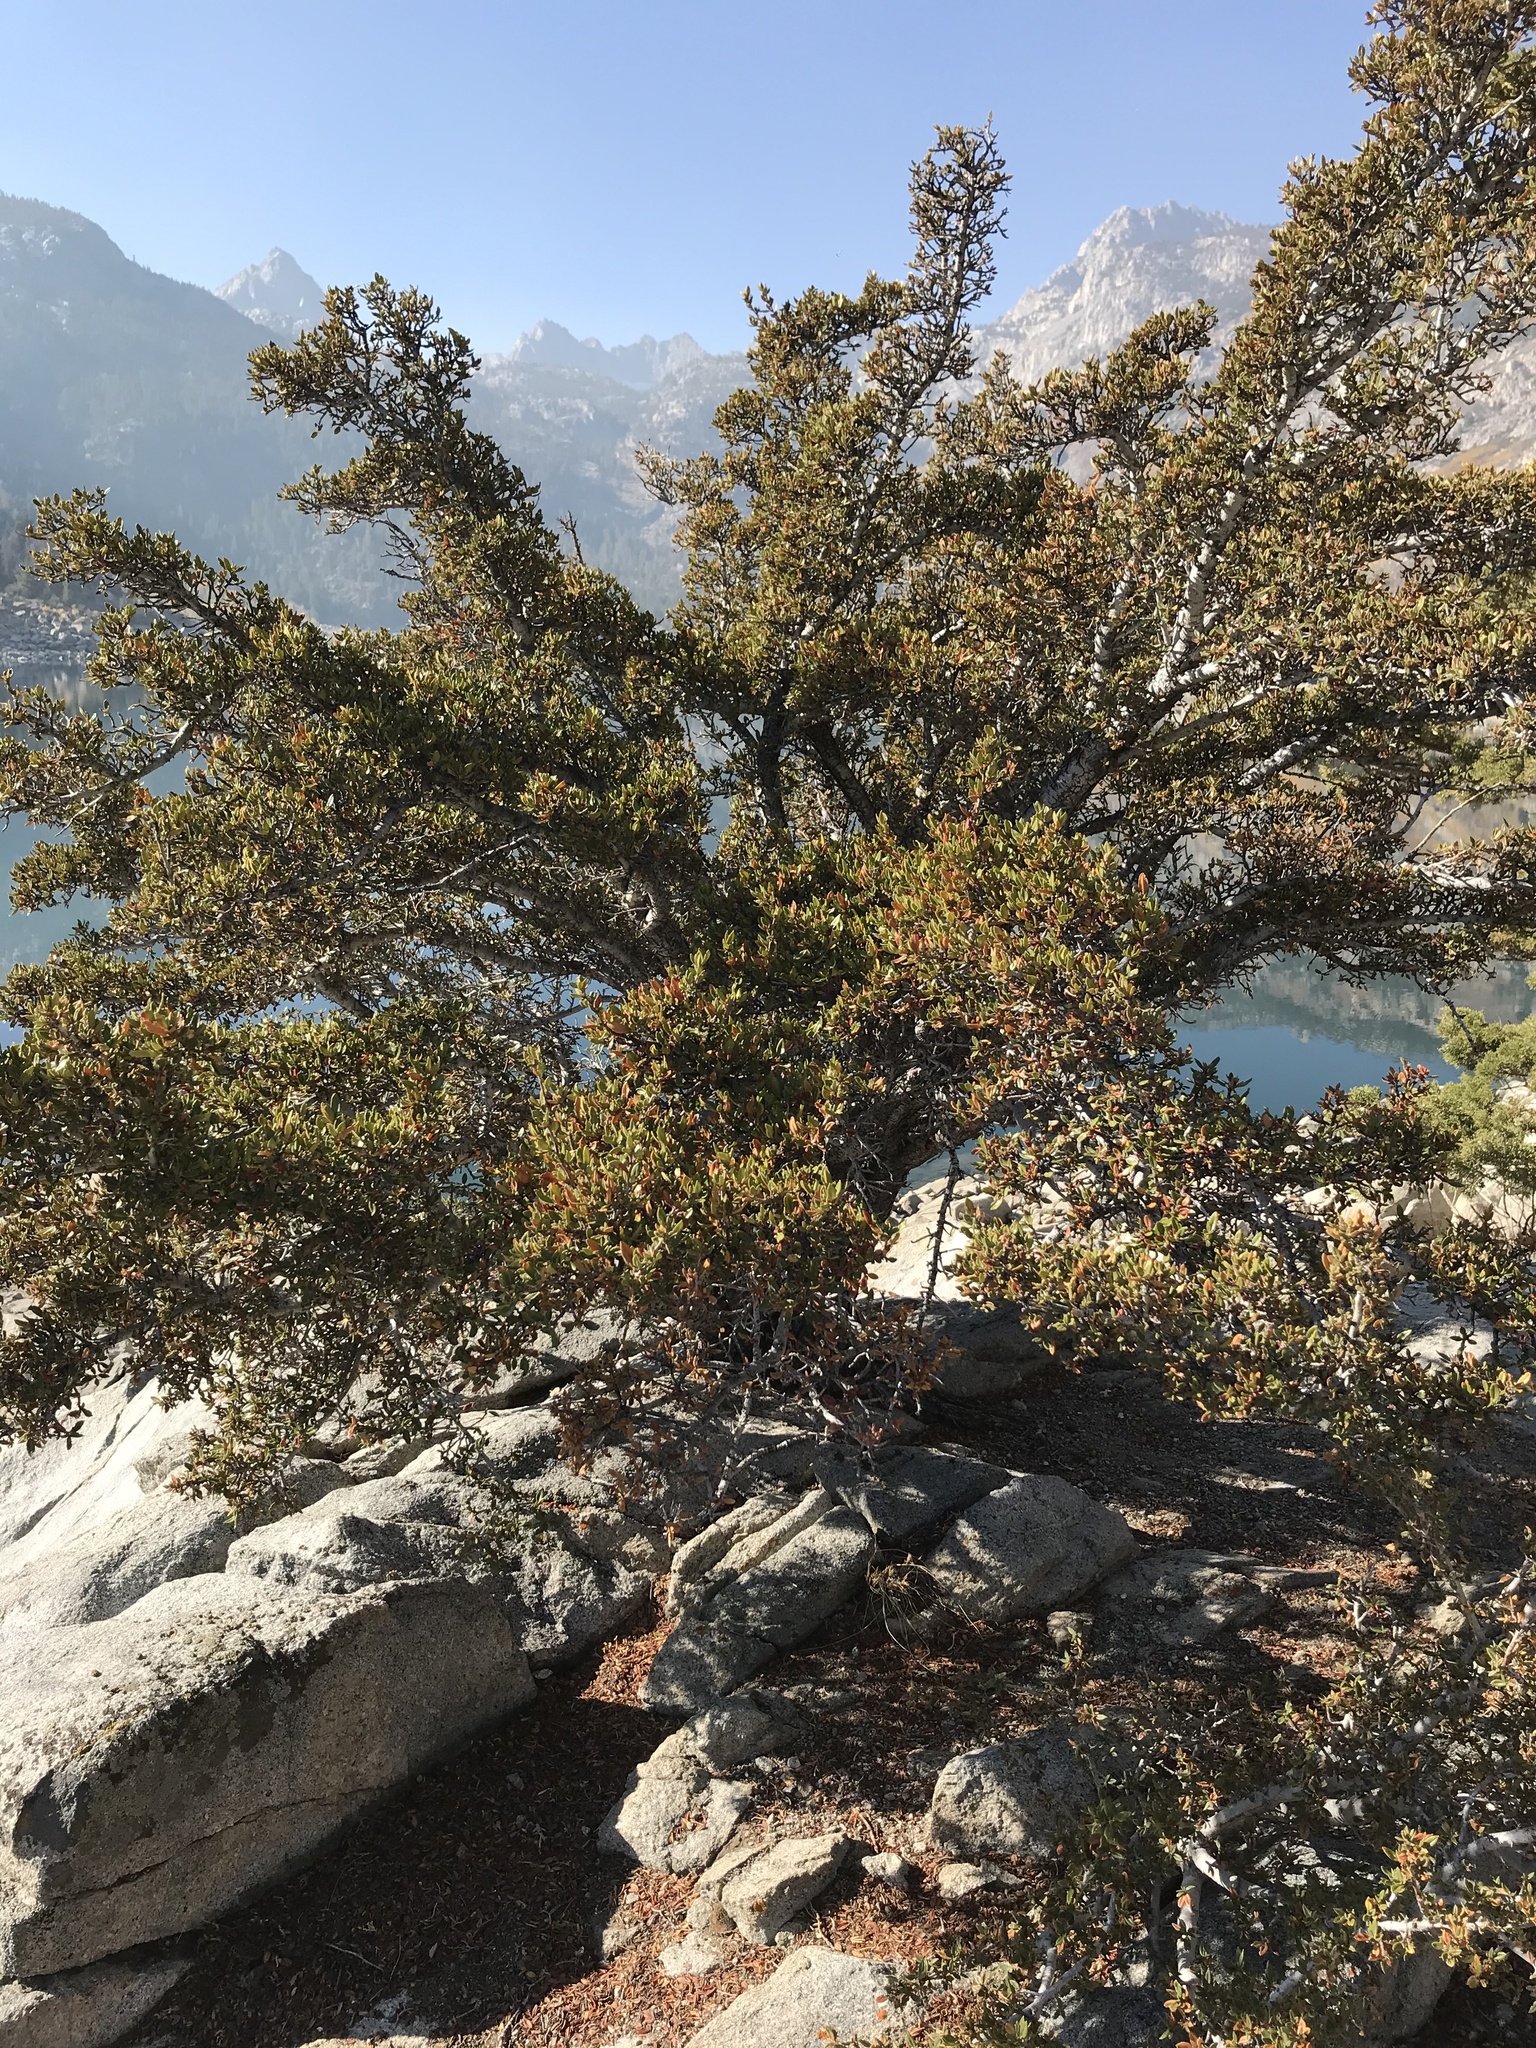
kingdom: Plantae
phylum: Tracheophyta
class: Magnoliopsida
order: Rosales
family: Rosaceae
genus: Cercocarpus
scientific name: Cercocarpus ledifolius
